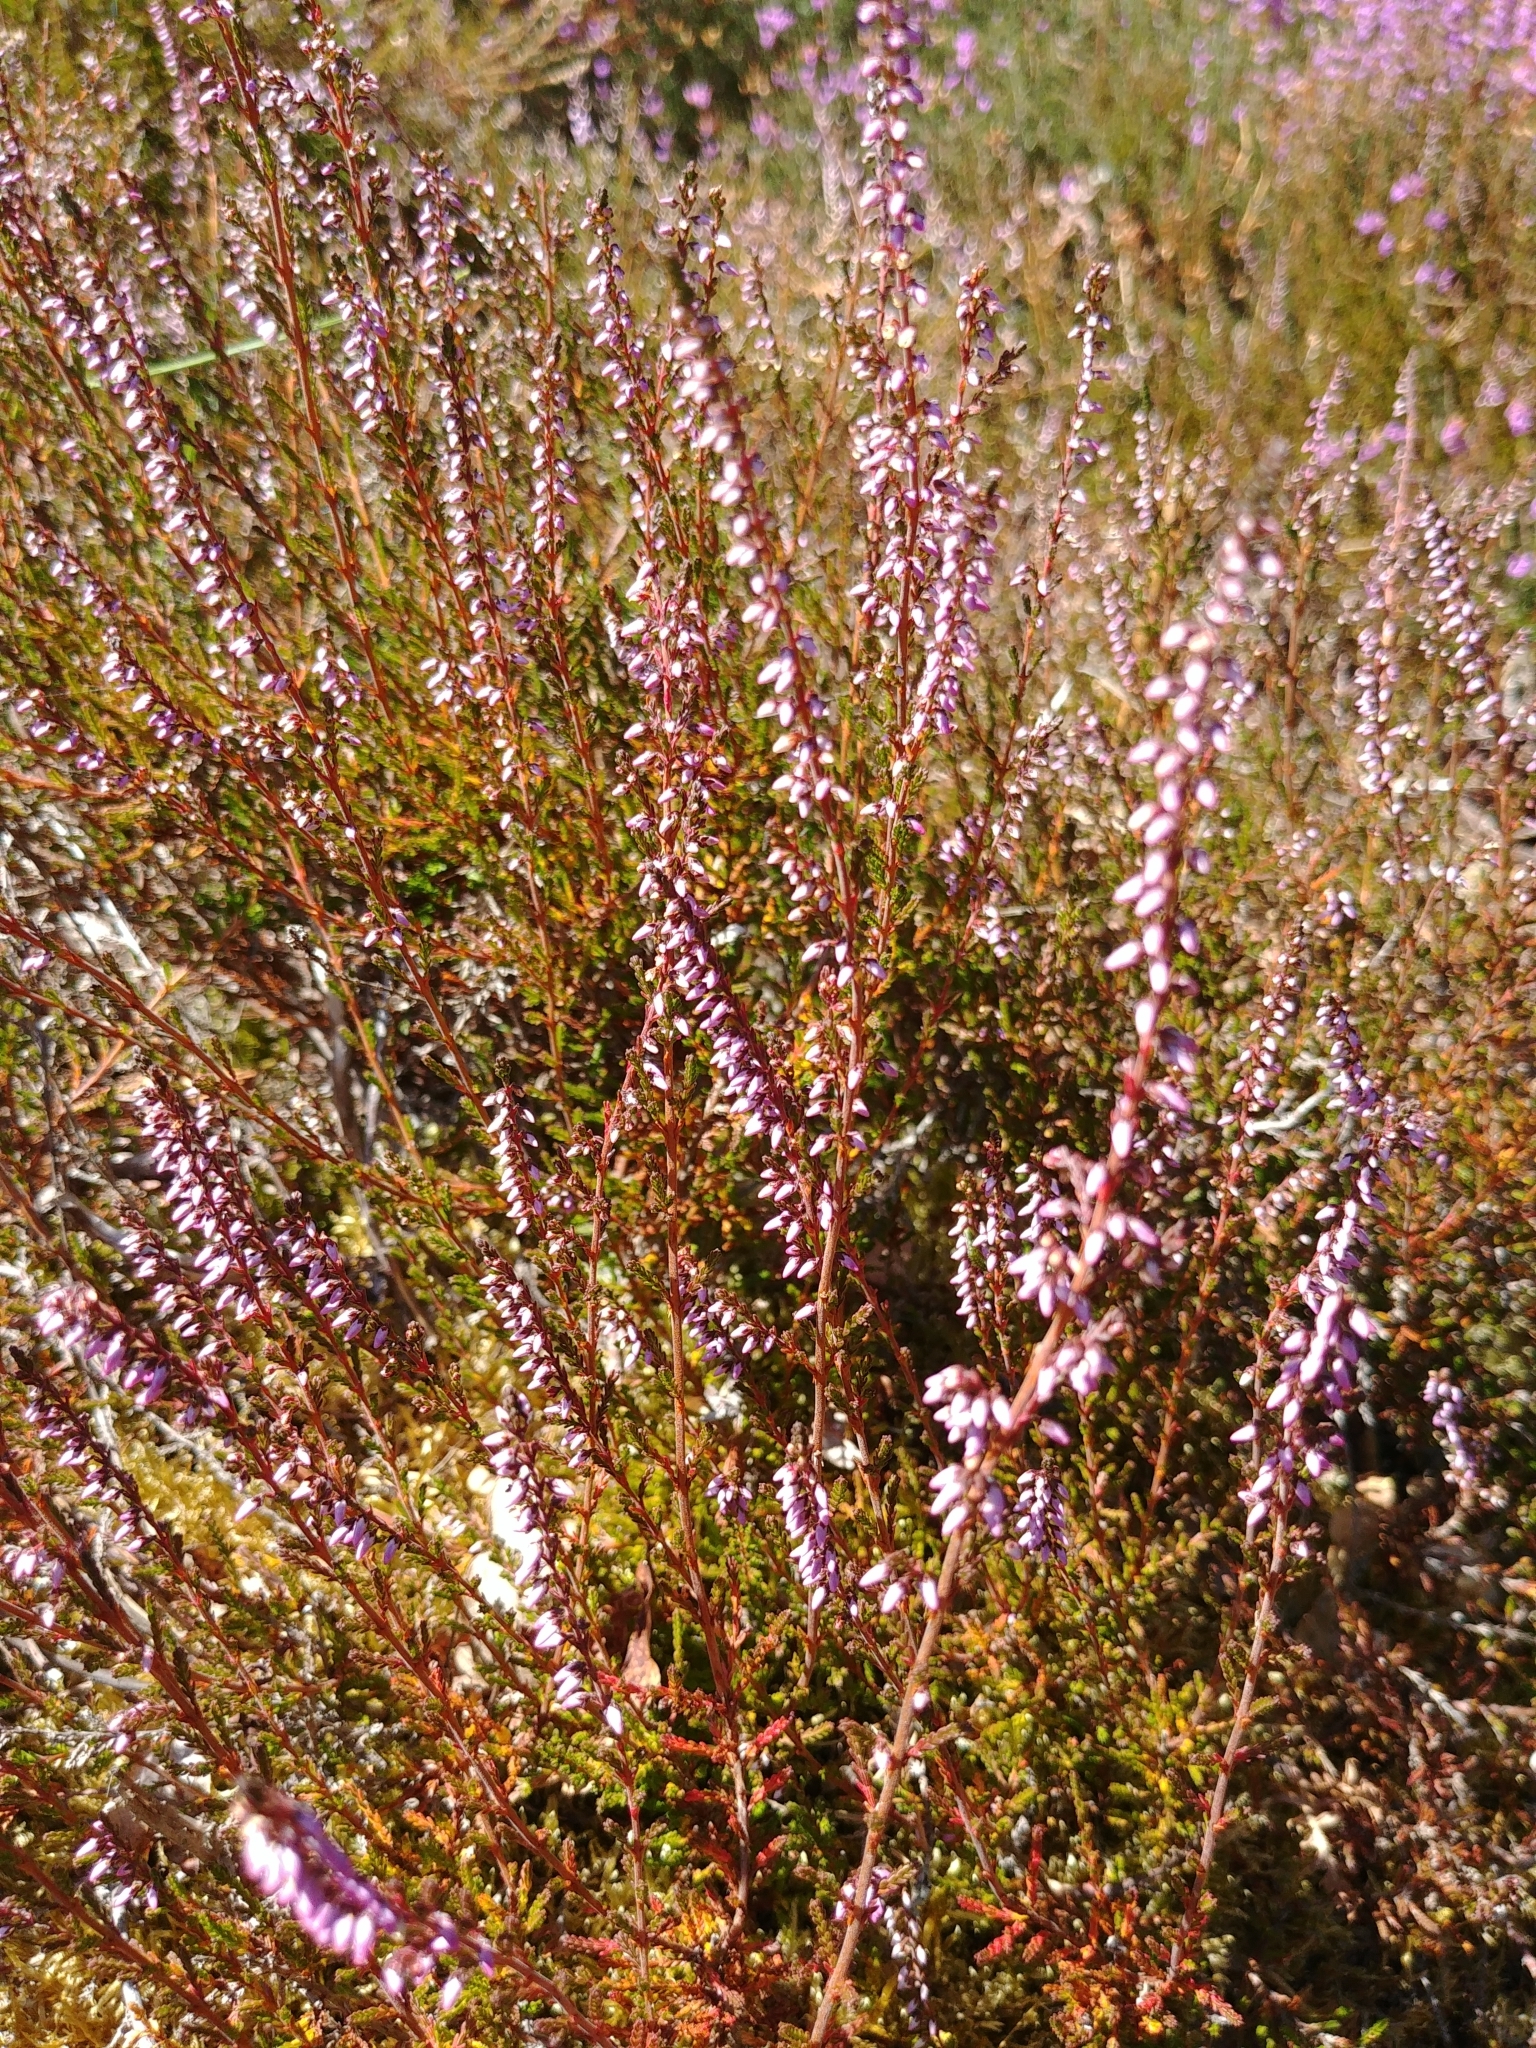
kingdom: Plantae
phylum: Tracheophyta
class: Magnoliopsida
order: Ericales
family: Ericaceae
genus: Calluna
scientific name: Calluna vulgaris
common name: Heather
